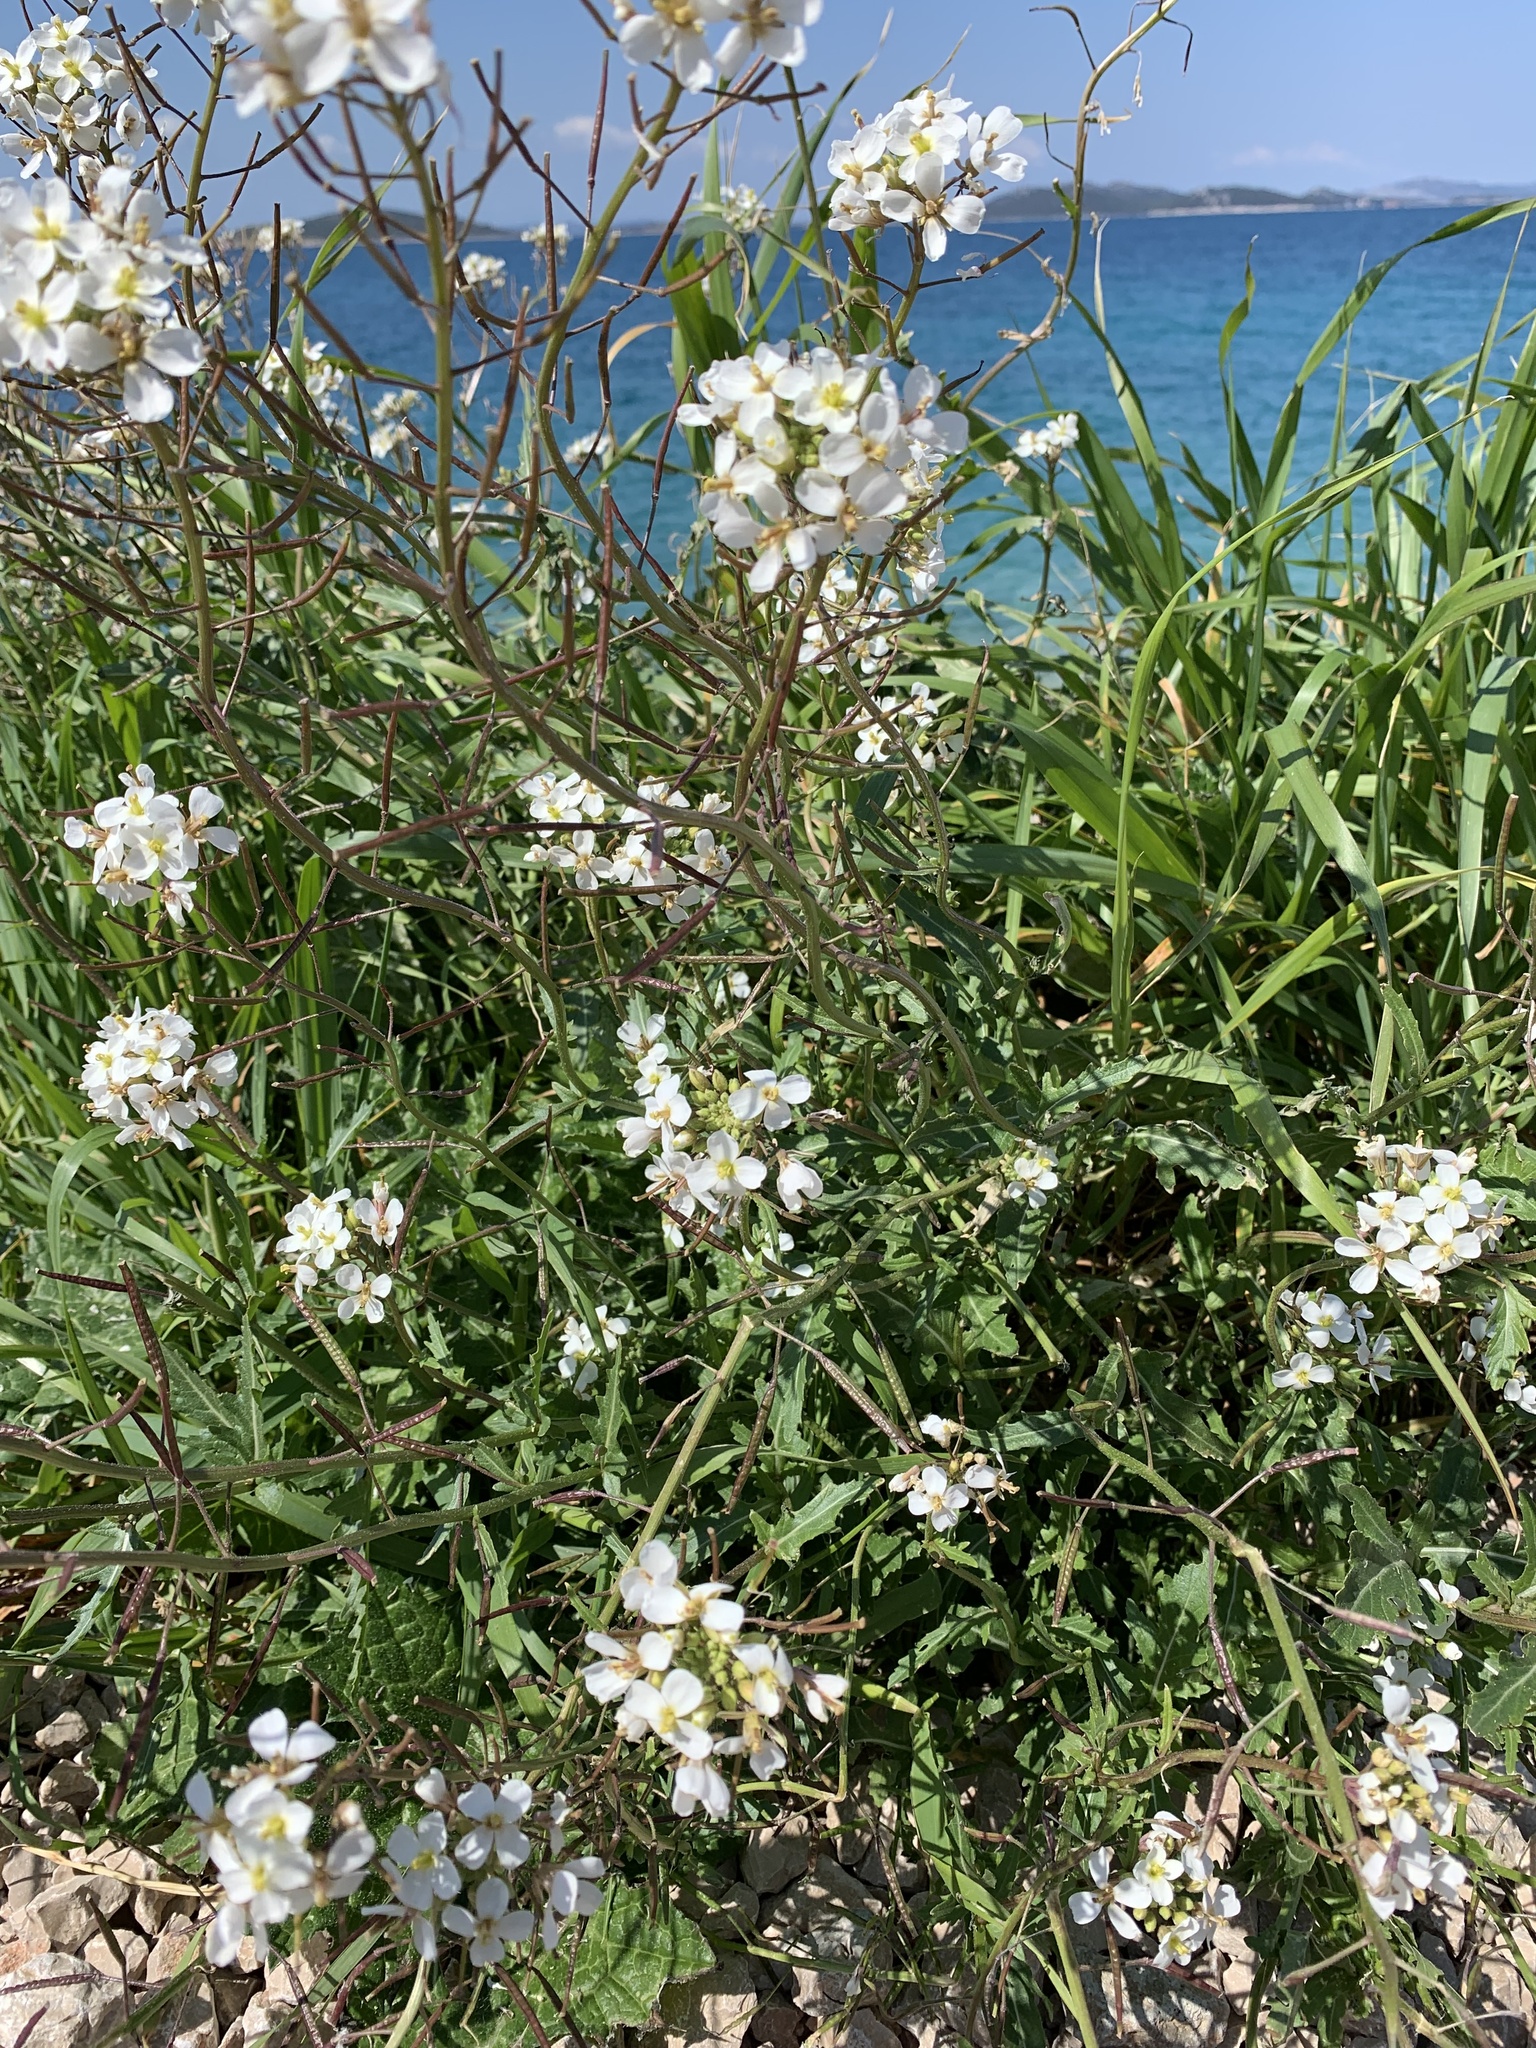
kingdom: Plantae
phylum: Tracheophyta
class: Magnoliopsida
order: Brassicales
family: Brassicaceae
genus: Diplotaxis
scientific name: Diplotaxis erucoides
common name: White rocket
